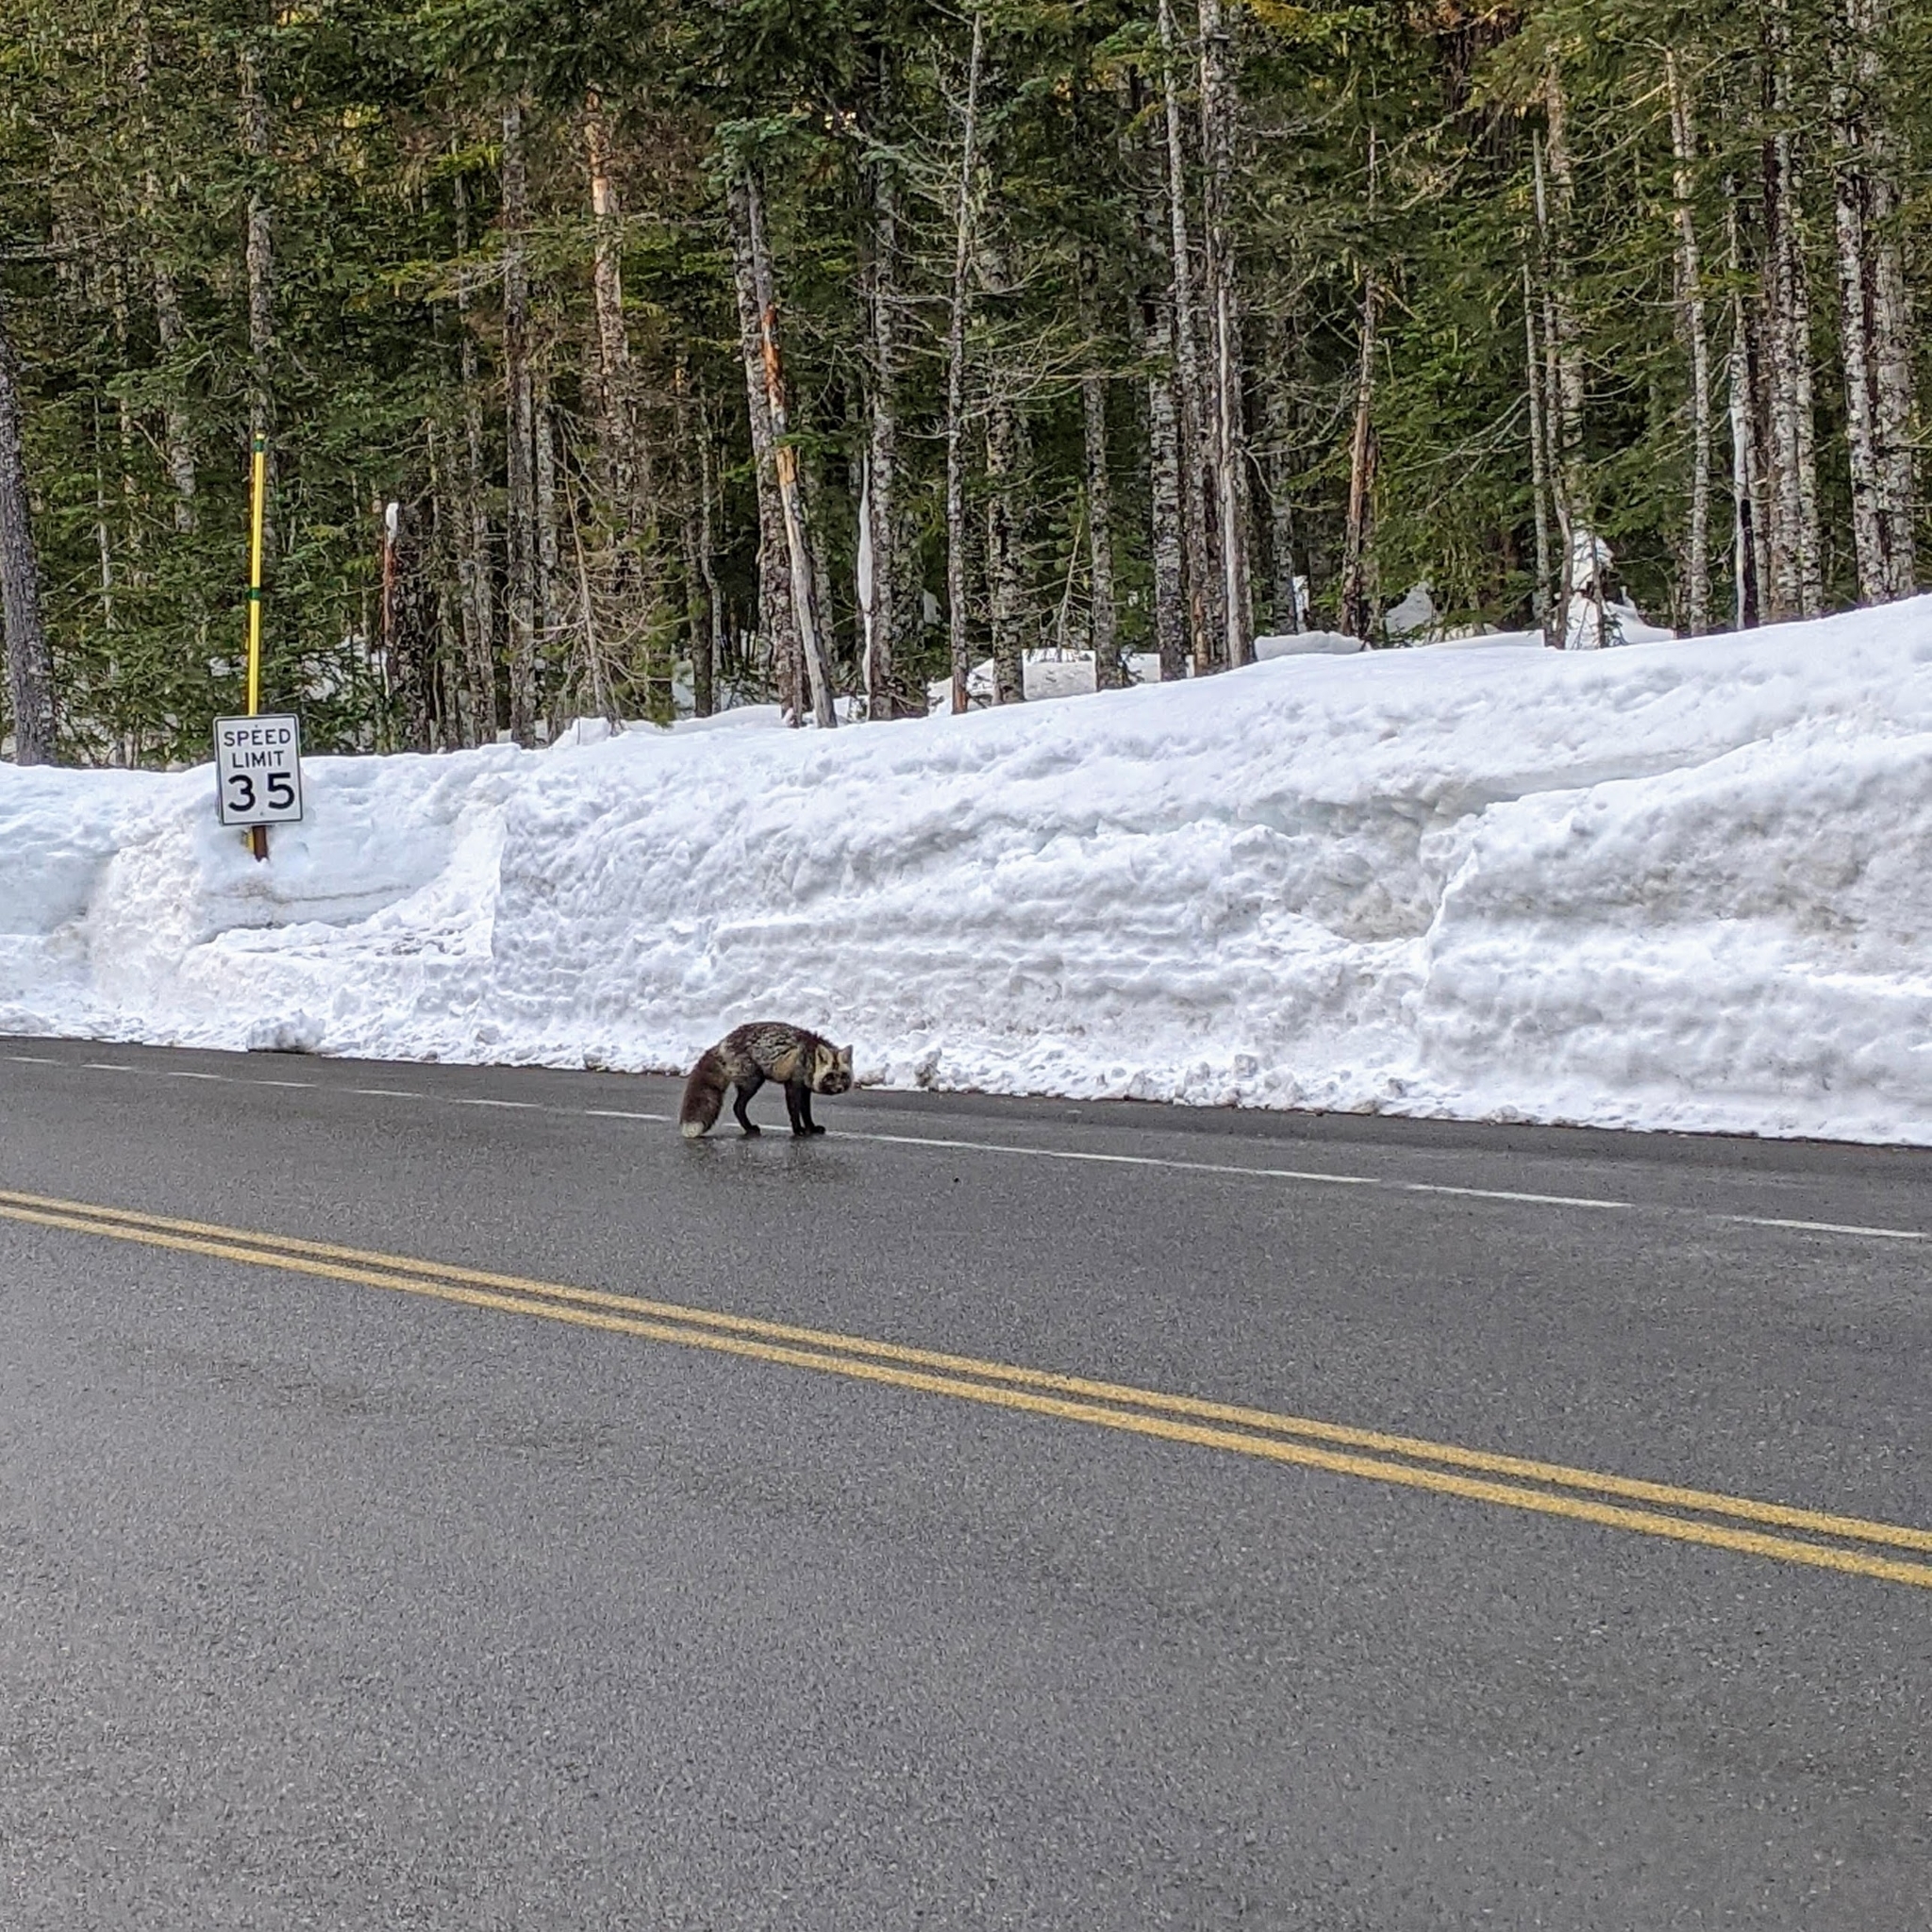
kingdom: Animalia
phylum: Chordata
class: Mammalia
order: Carnivora
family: Canidae
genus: Vulpes
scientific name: Vulpes vulpes
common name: Red fox
